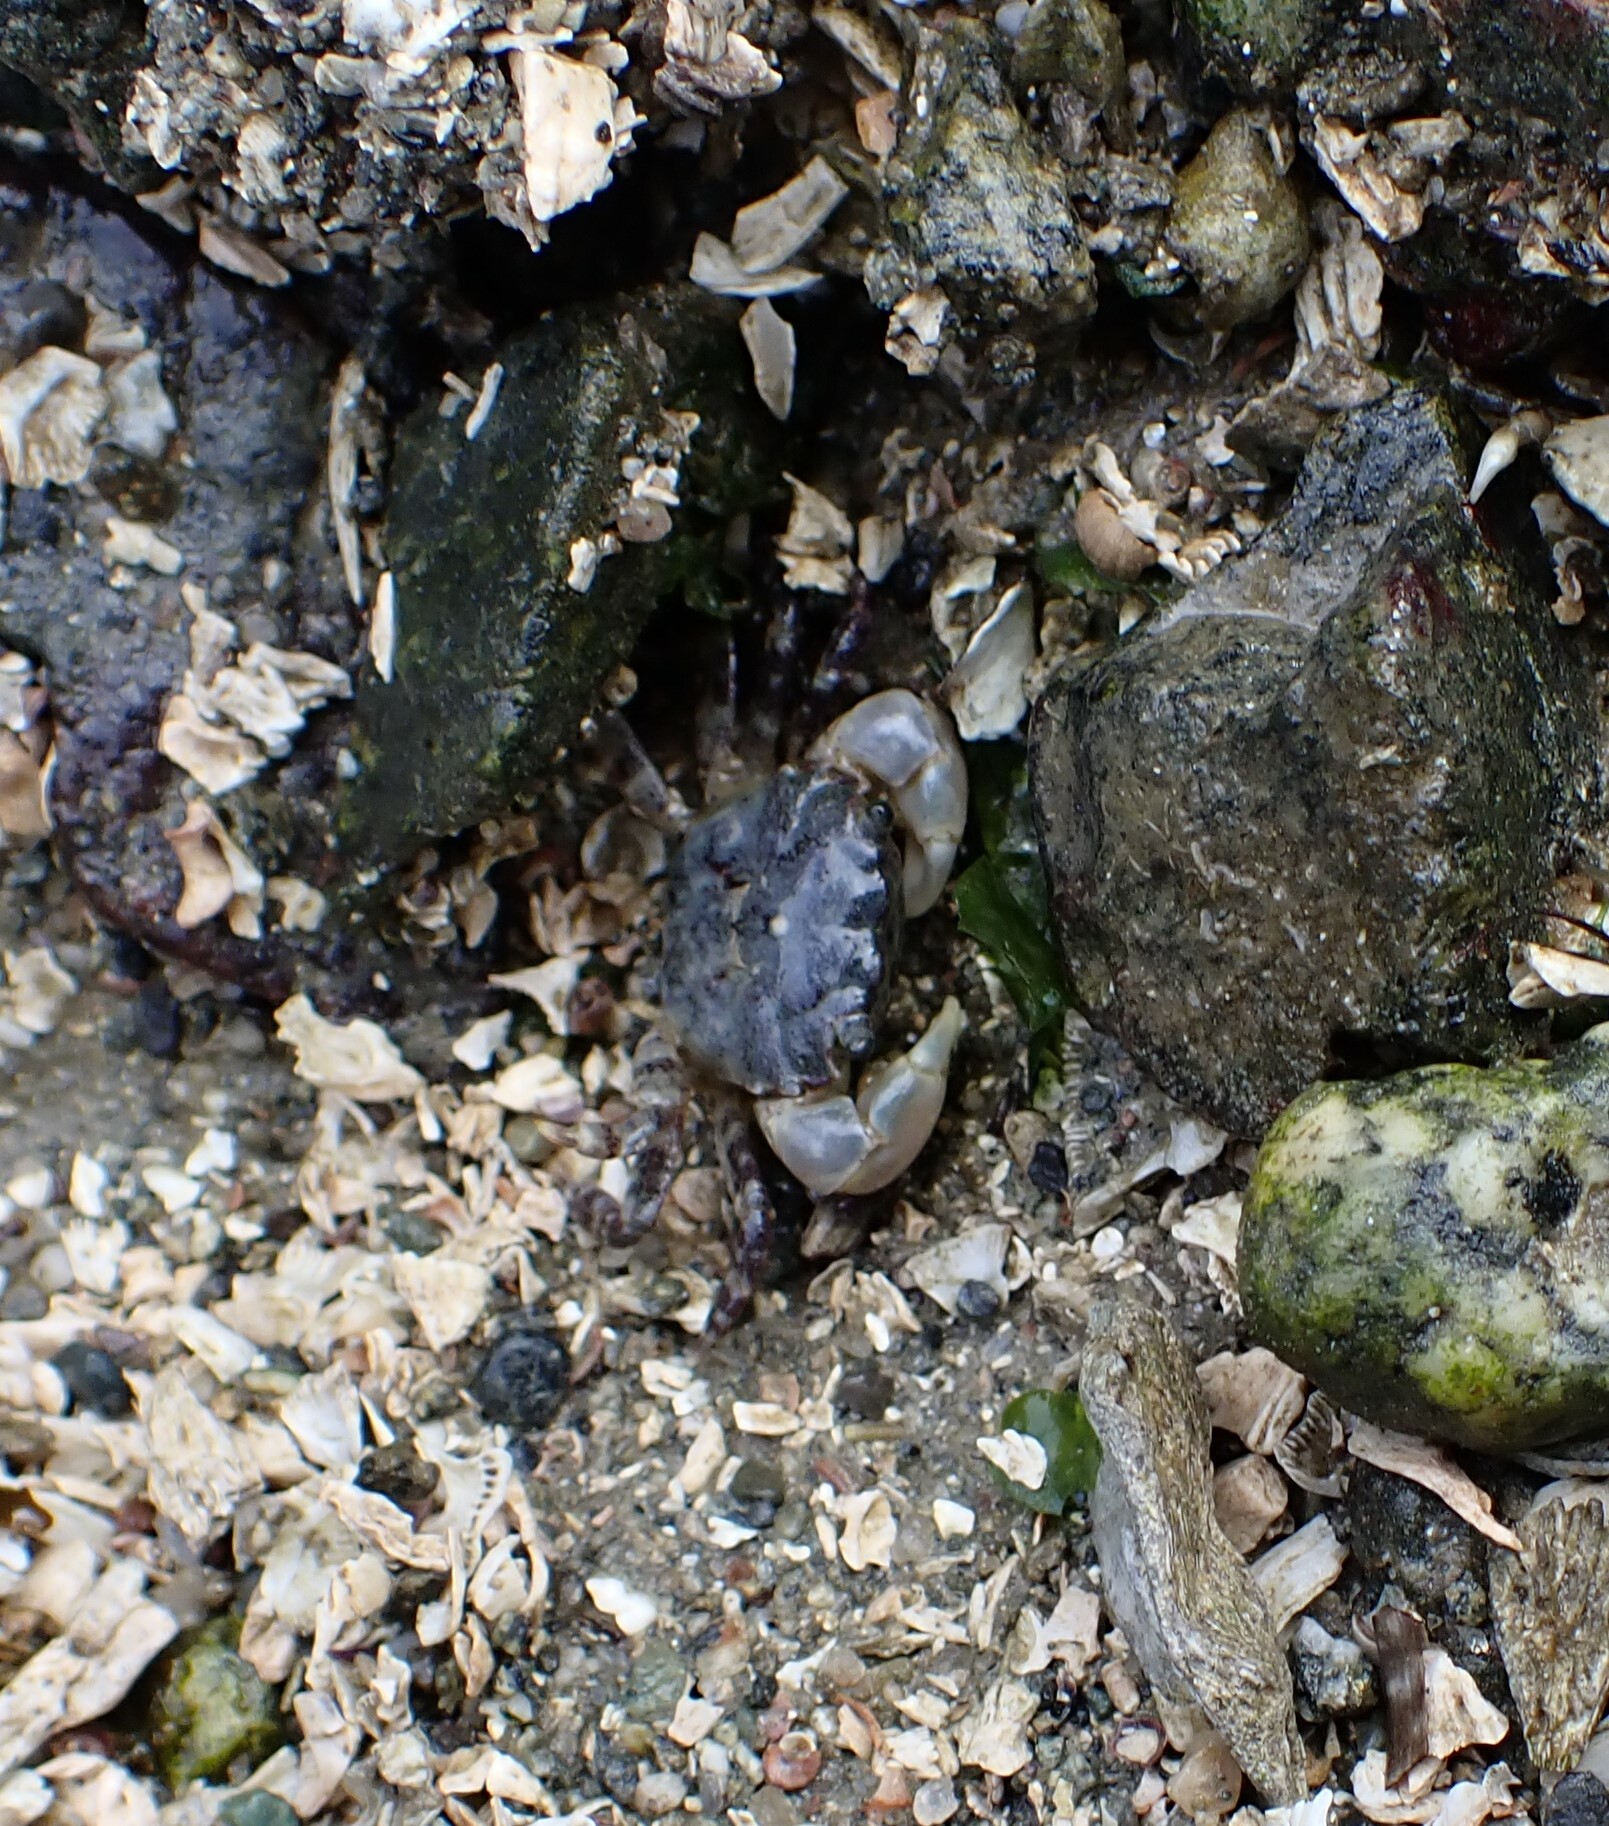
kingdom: Animalia
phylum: Arthropoda
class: Malacostraca
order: Decapoda
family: Varunidae
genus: Hemigrapsus
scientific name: Hemigrapsus oregonensis
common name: Yellow shore crab
